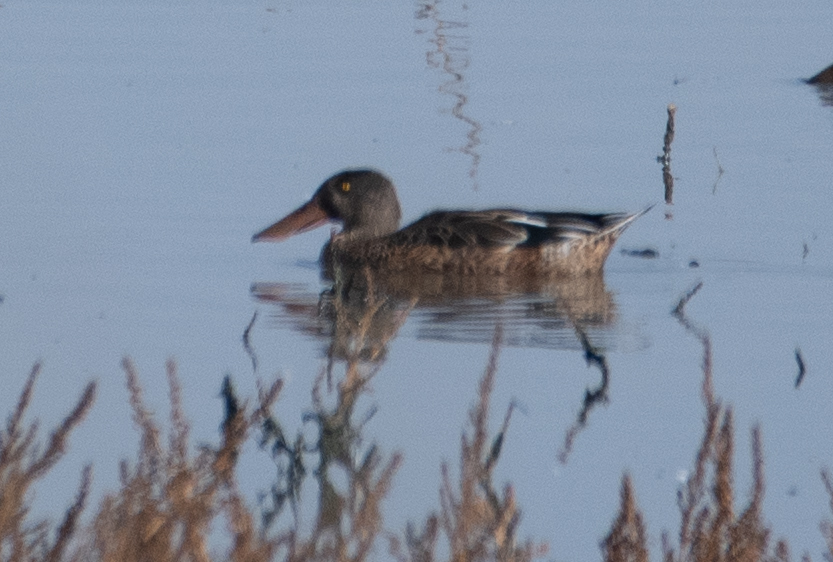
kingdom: Animalia
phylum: Chordata
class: Aves
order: Anseriformes
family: Anatidae
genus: Spatula
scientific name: Spatula clypeata
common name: Northern shoveler
